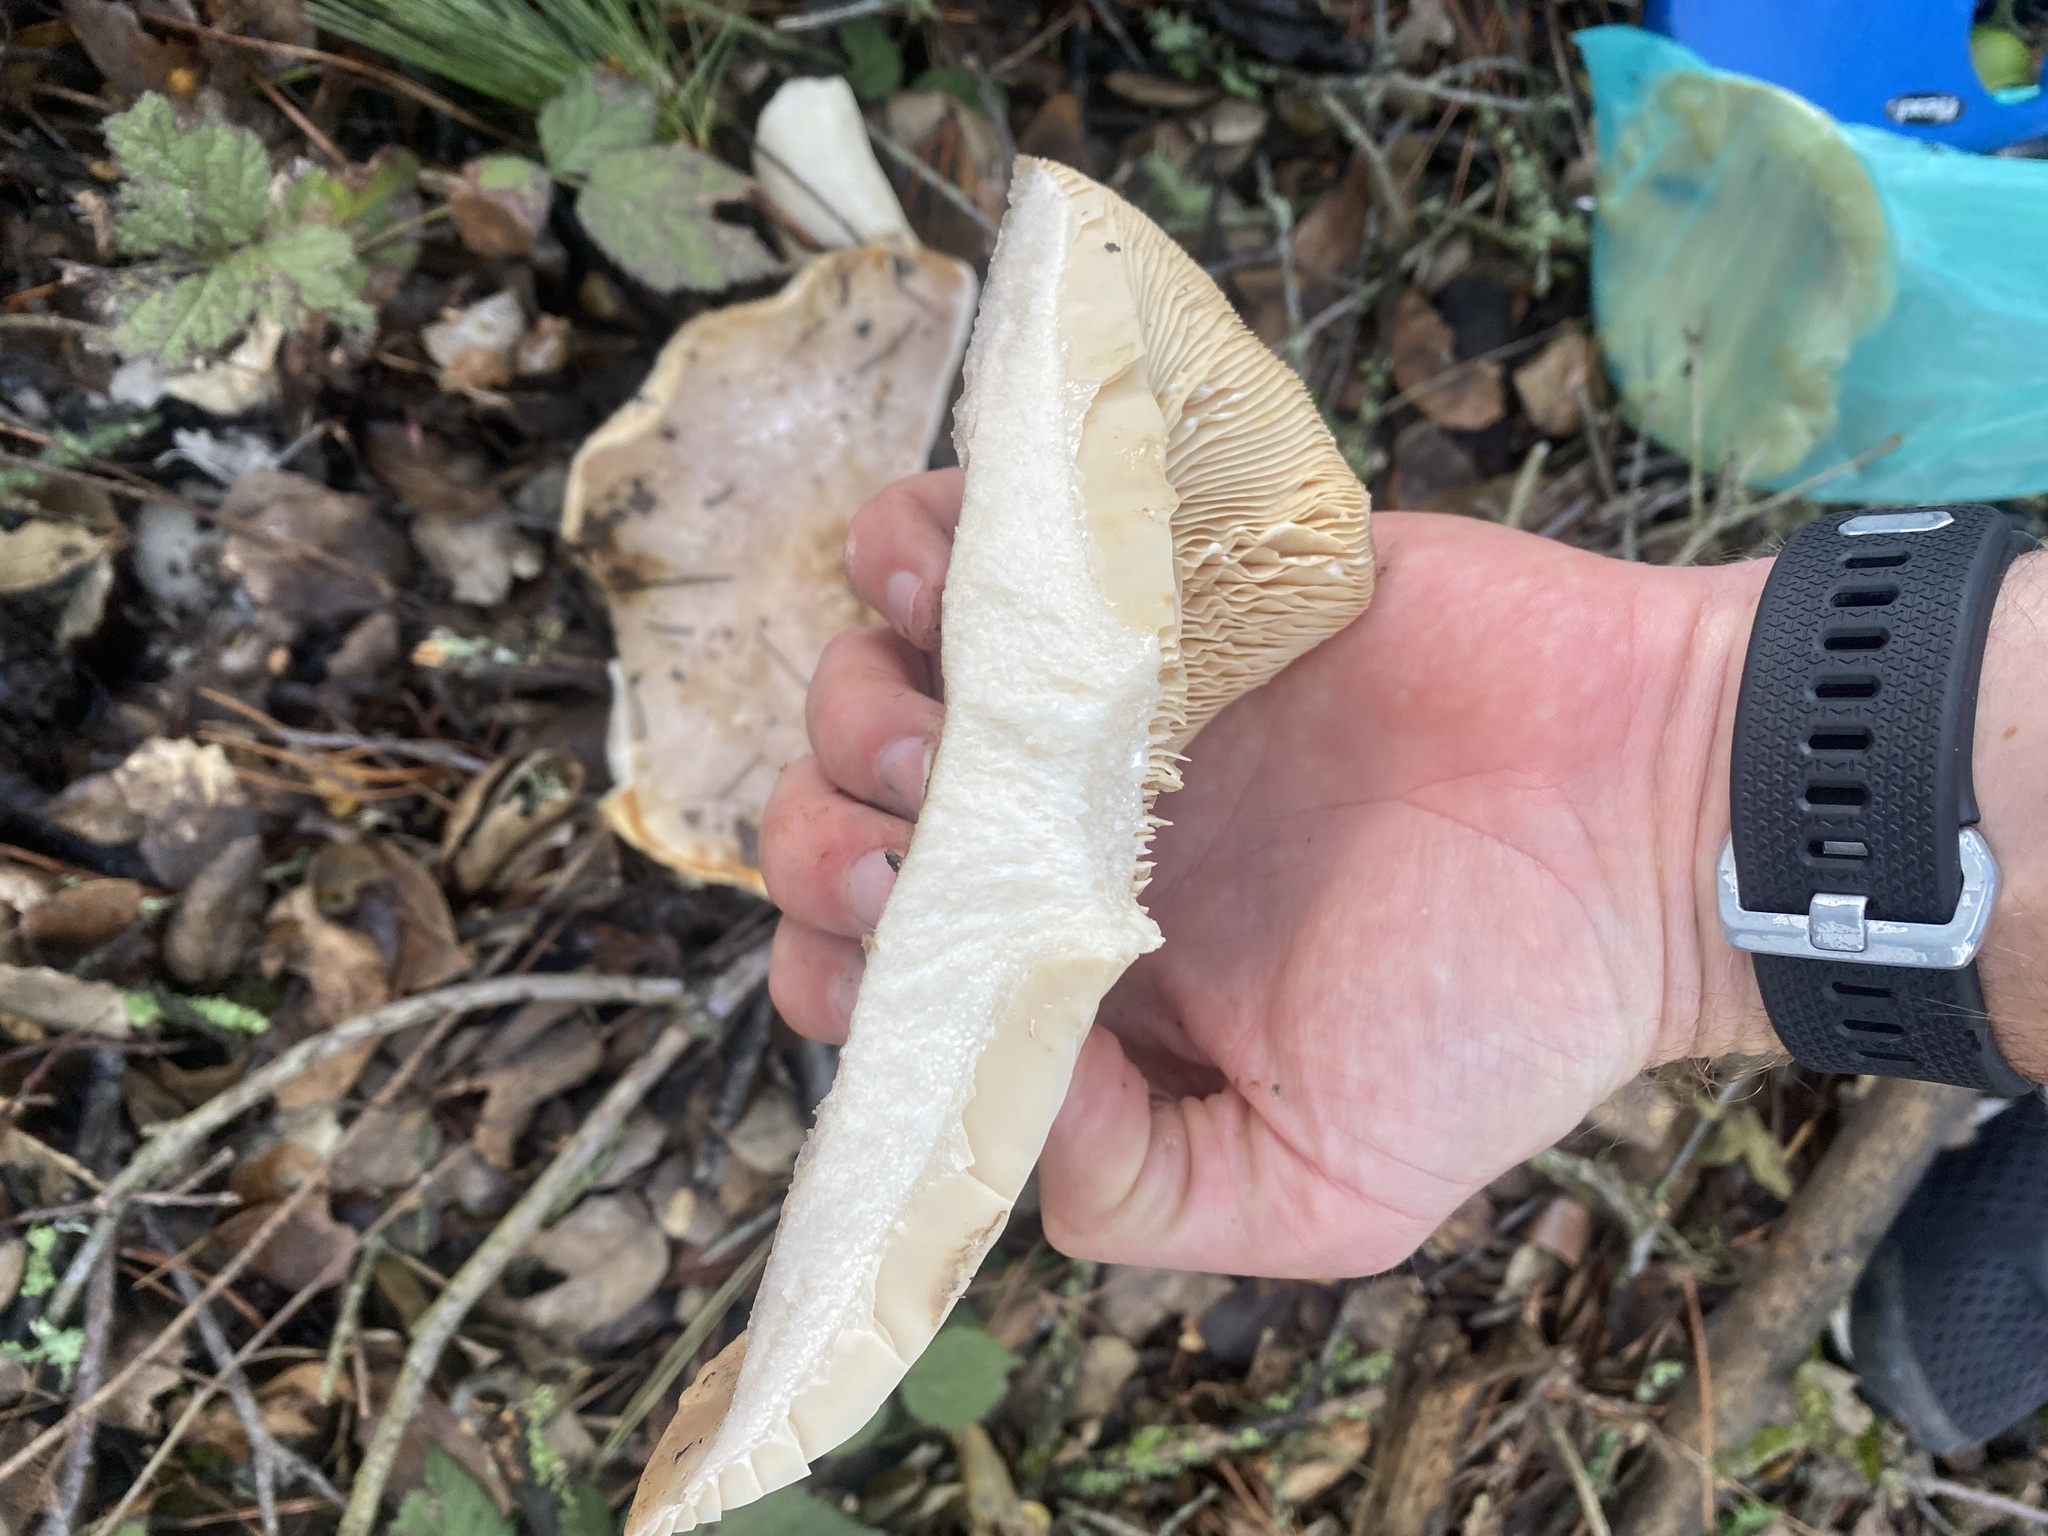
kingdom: Fungi
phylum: Basidiomycota
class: Agaricomycetes
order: Russulales
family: Russulaceae
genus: Lactarius
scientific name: Lactarius argillaceifolius
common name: Clay-gilled milkcap
